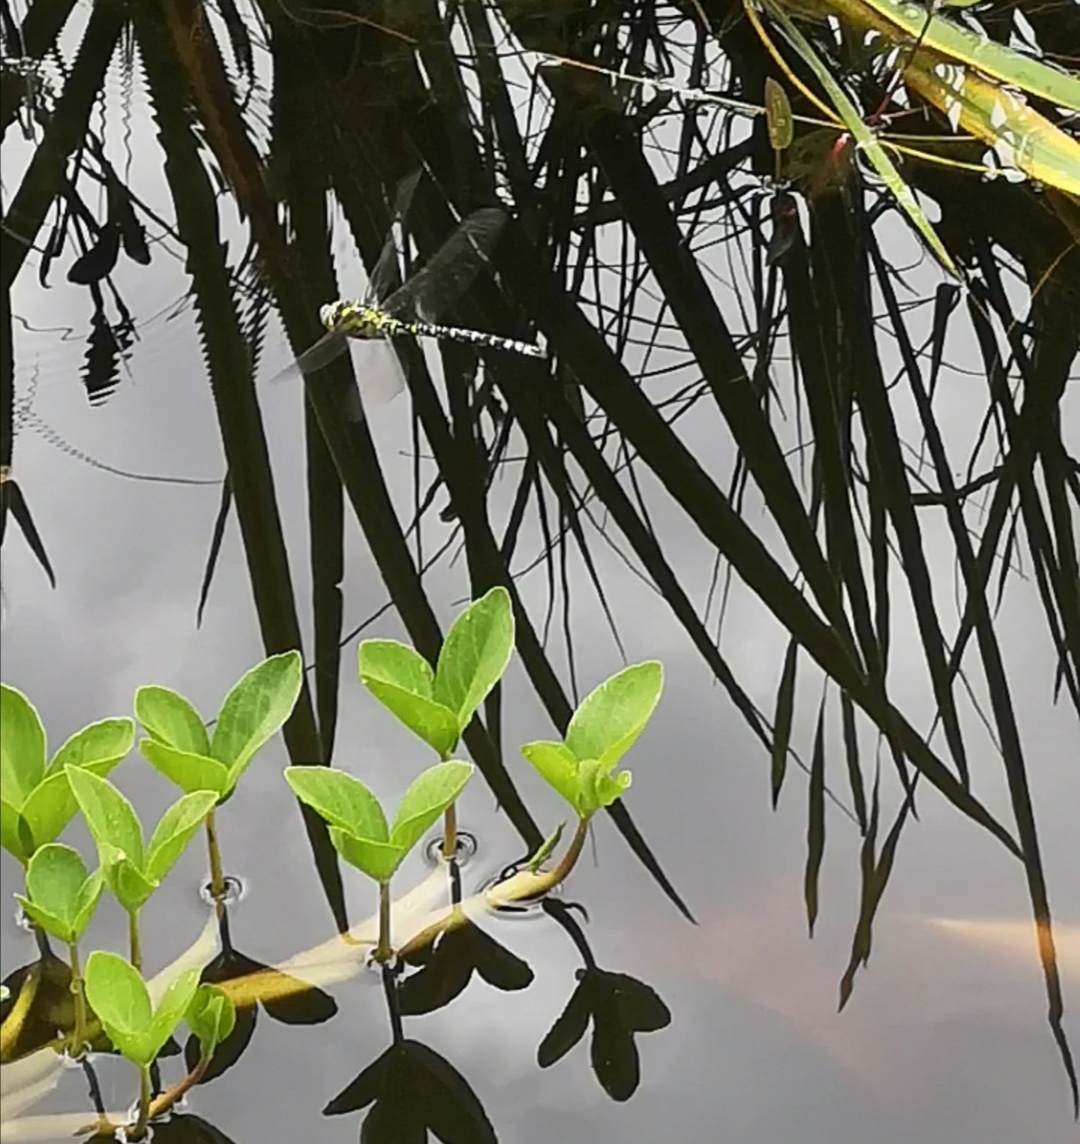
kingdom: Animalia
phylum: Arthropoda
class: Insecta
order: Odonata
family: Aeshnidae
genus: Aeshna
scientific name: Aeshna cyanea
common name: Southern hawker
